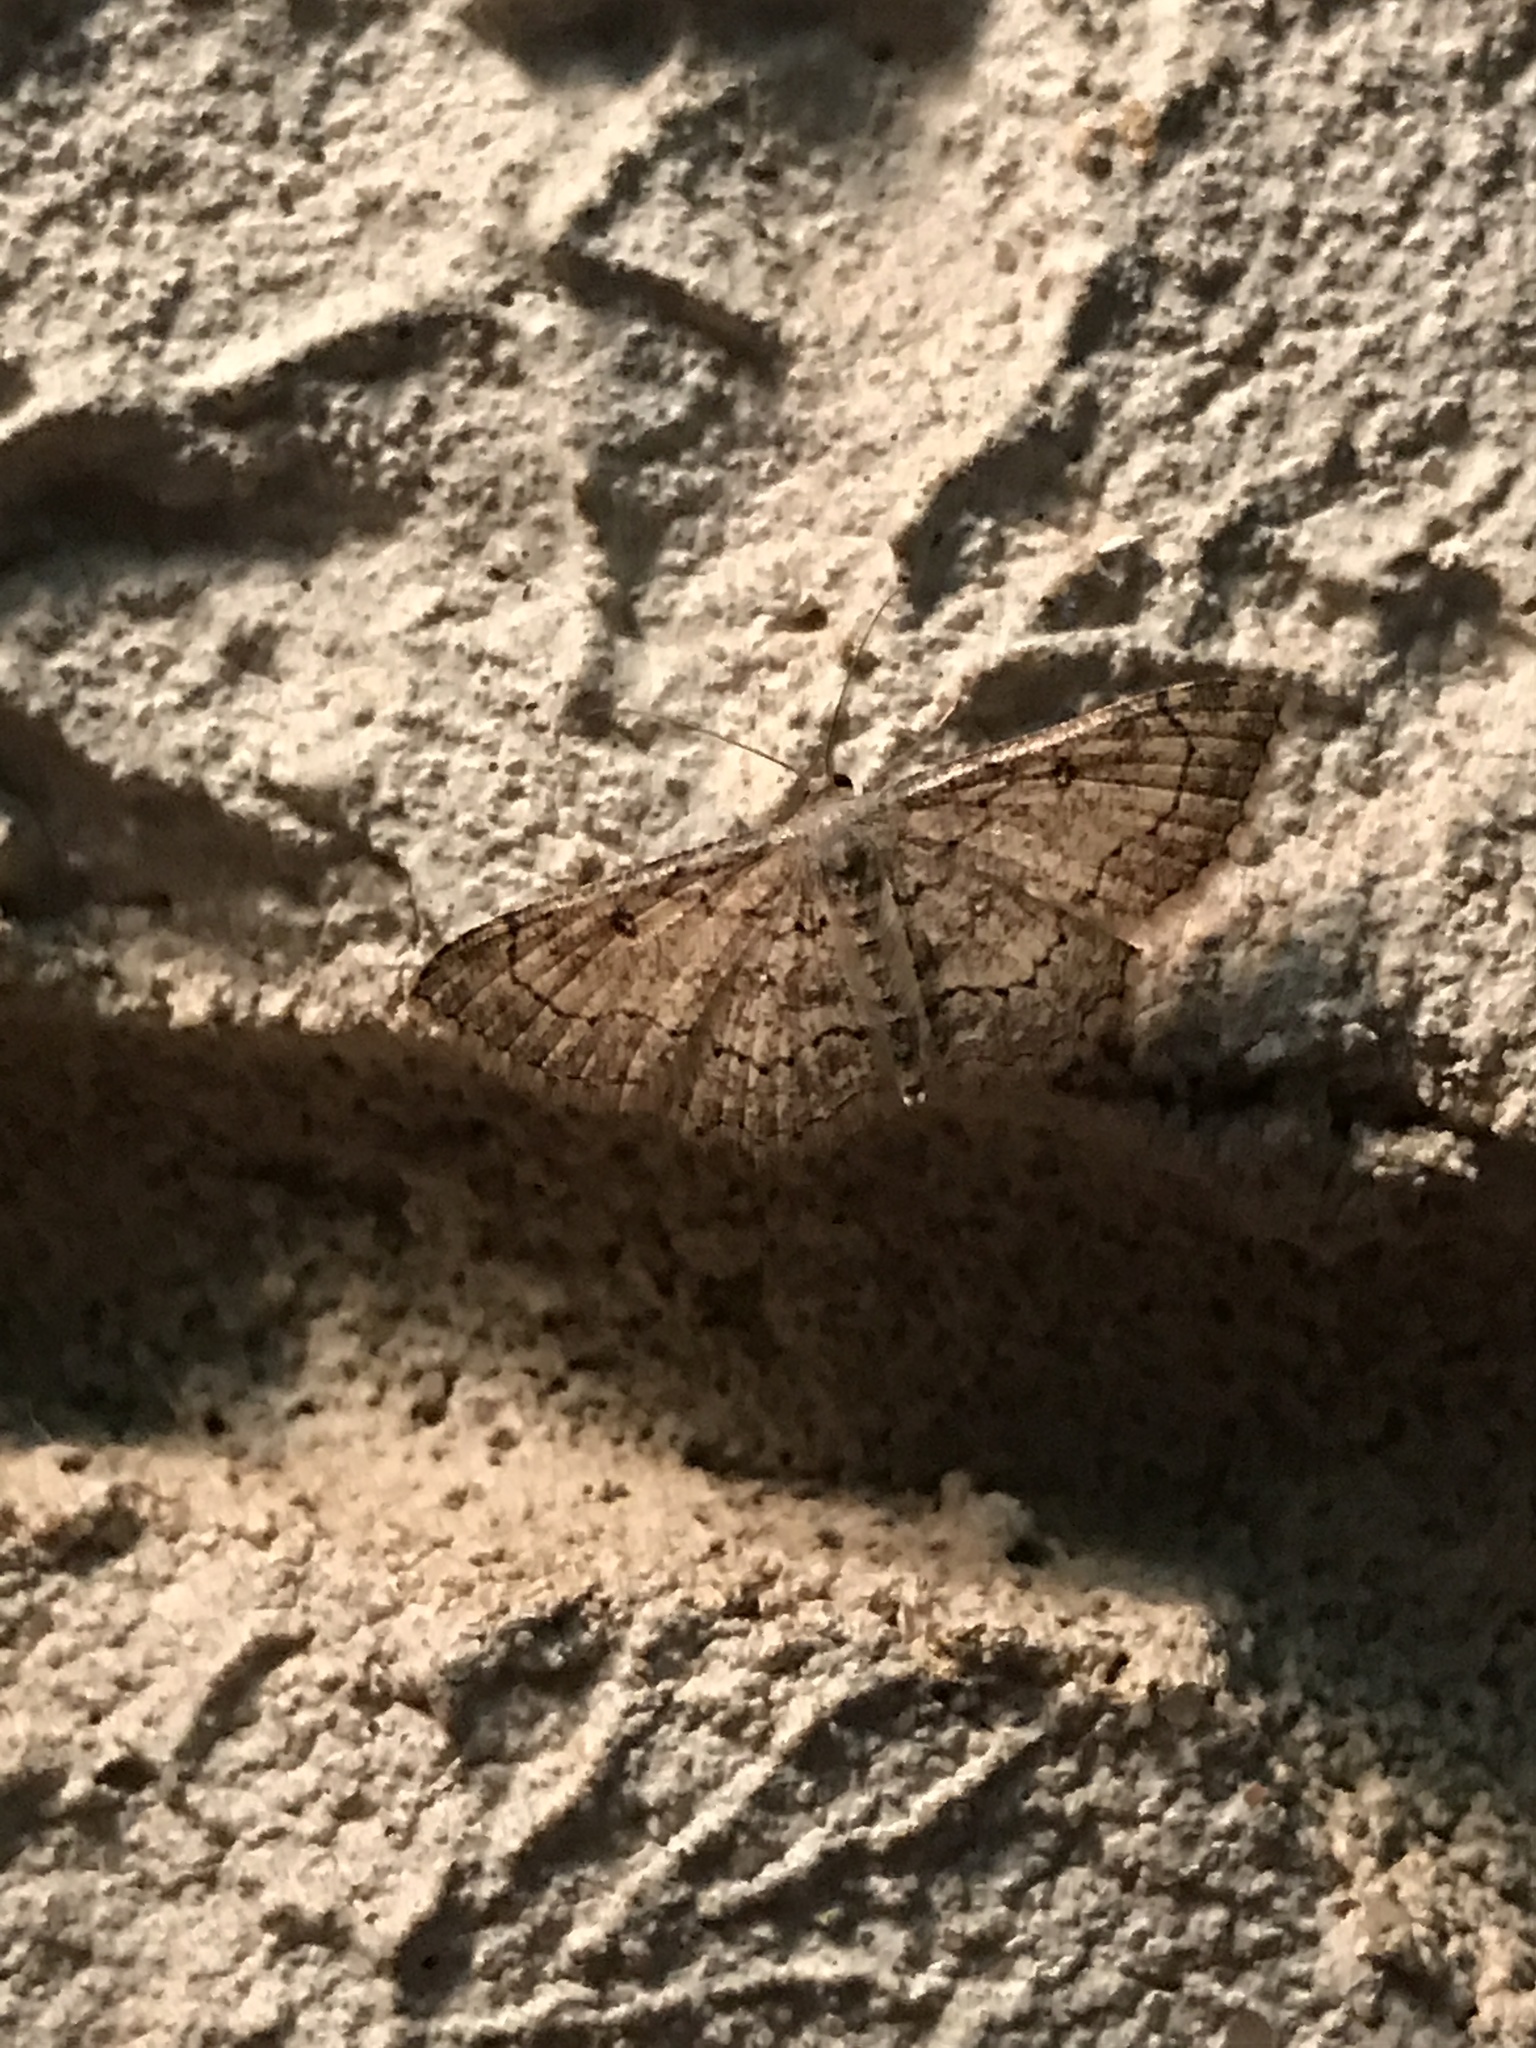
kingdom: Animalia
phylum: Arthropoda
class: Insecta
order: Lepidoptera
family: Geometridae
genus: Cyclophora
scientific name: Cyclophora nanaria
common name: Cankerworm
